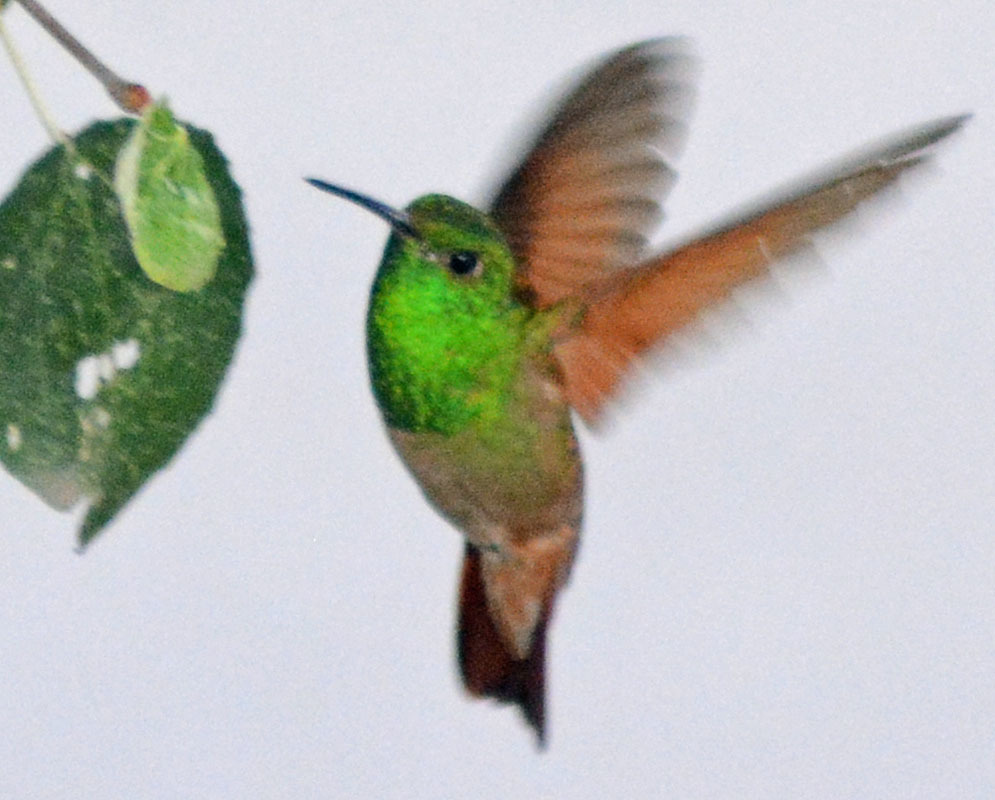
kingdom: Animalia
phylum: Chordata
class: Aves
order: Apodiformes
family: Trochilidae
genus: Saucerottia
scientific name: Saucerottia beryllina
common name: Berylline hummingbird
